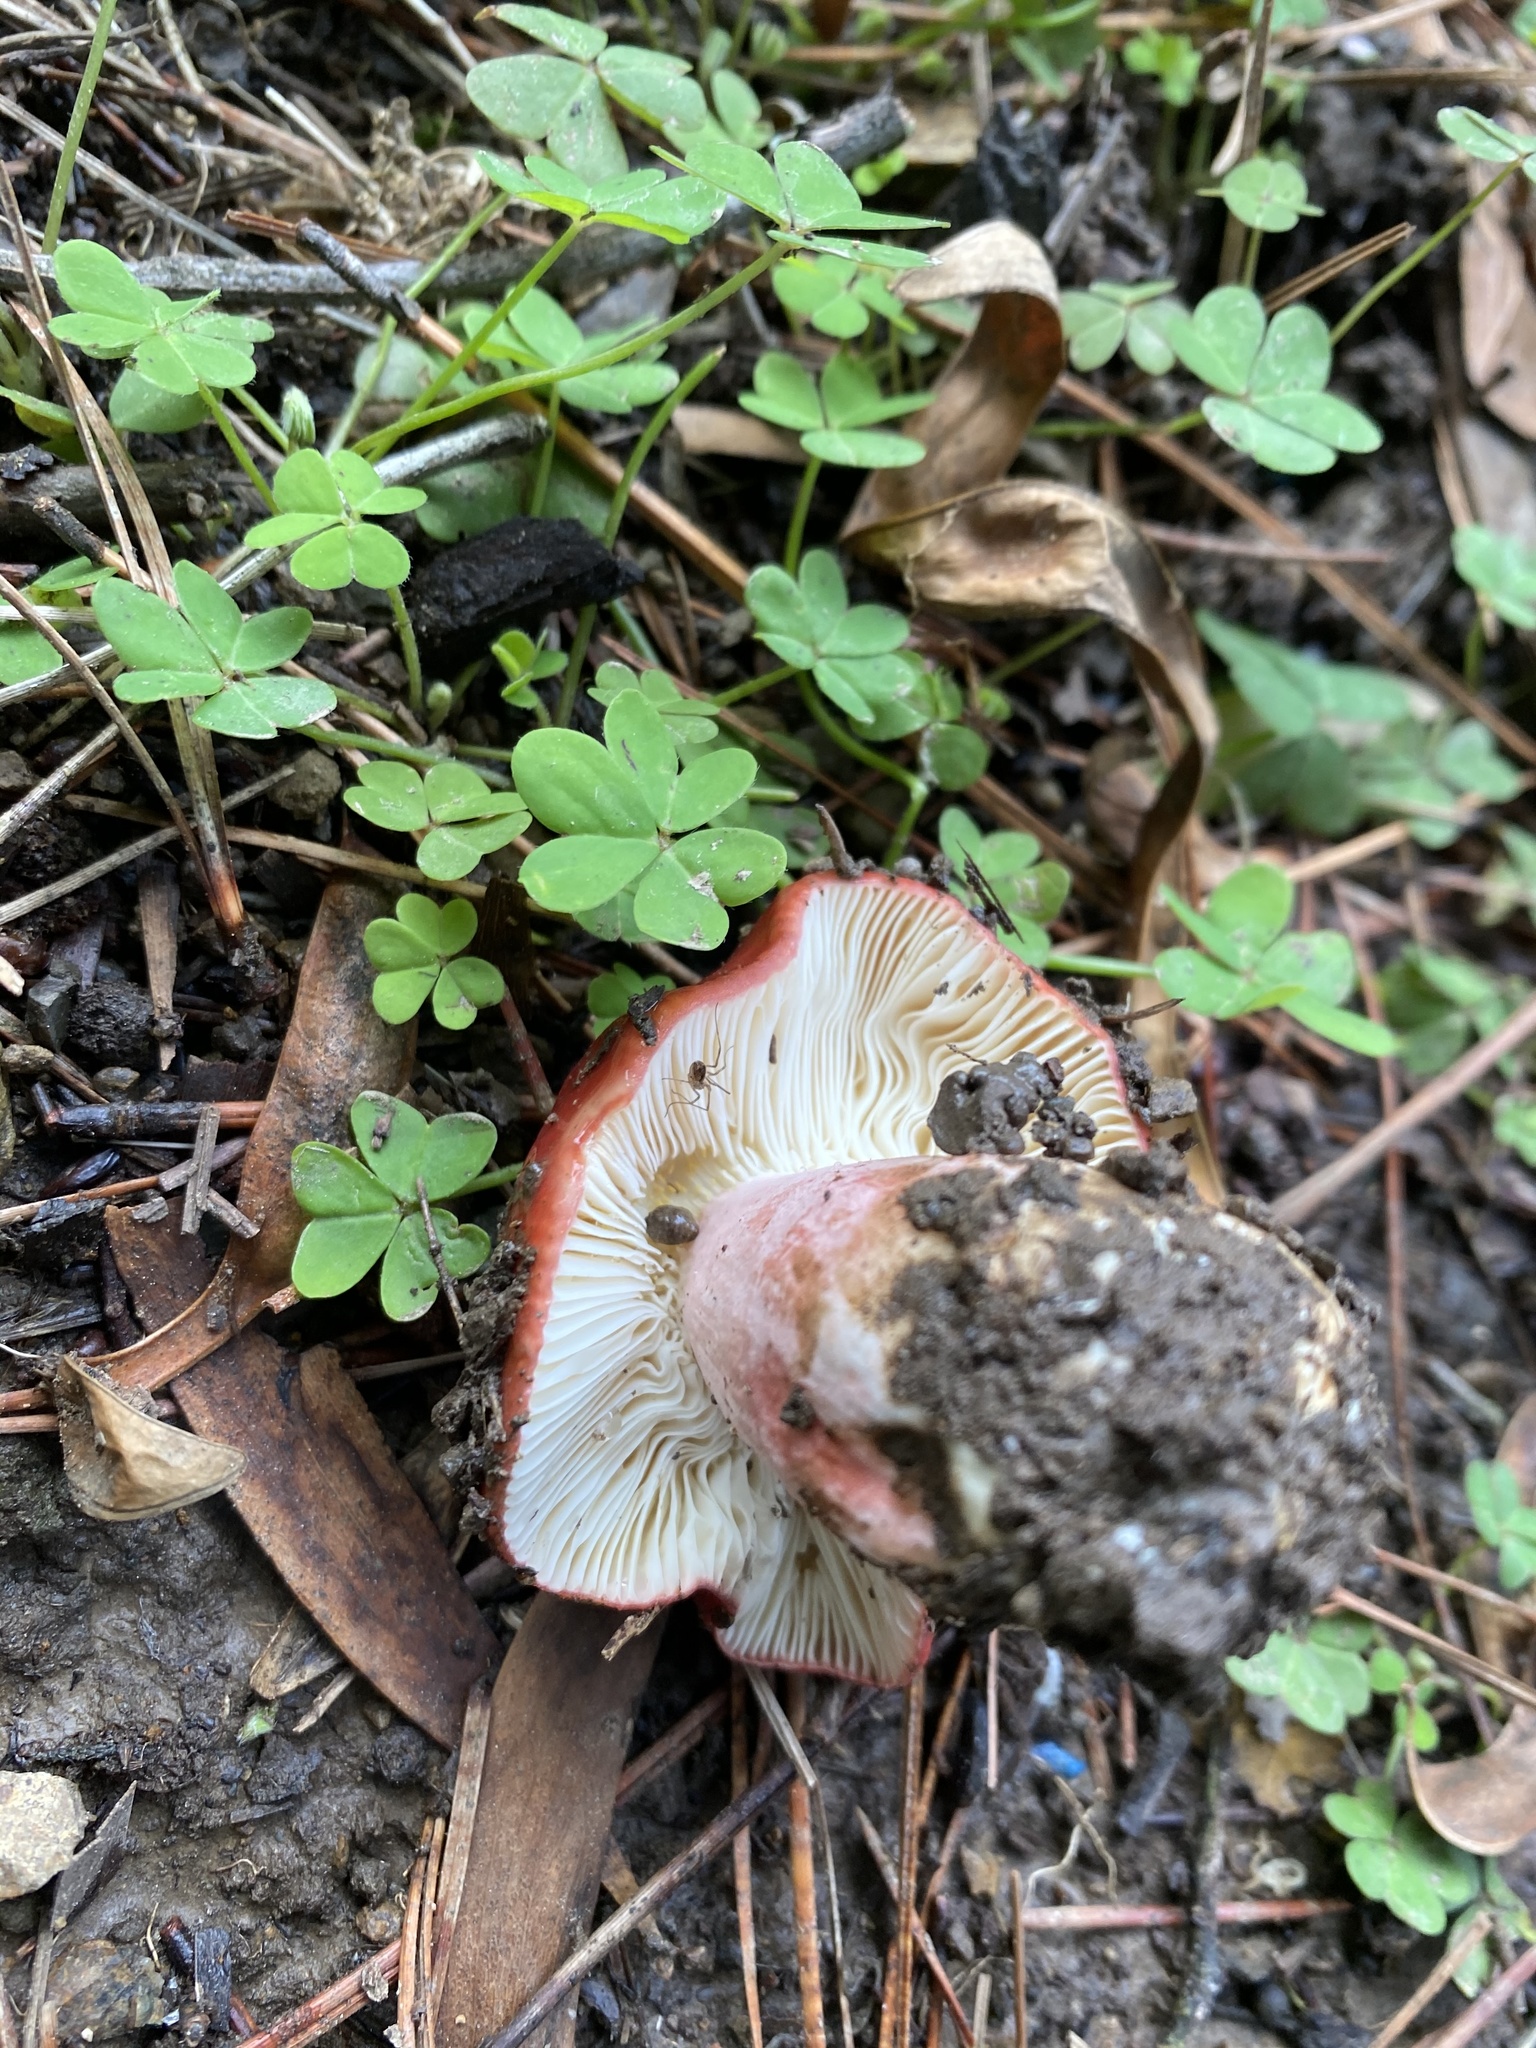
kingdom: Fungi
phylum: Basidiomycota
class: Agaricomycetes
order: Russulales
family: Russulaceae
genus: Russula
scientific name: Russula rhodocephala
